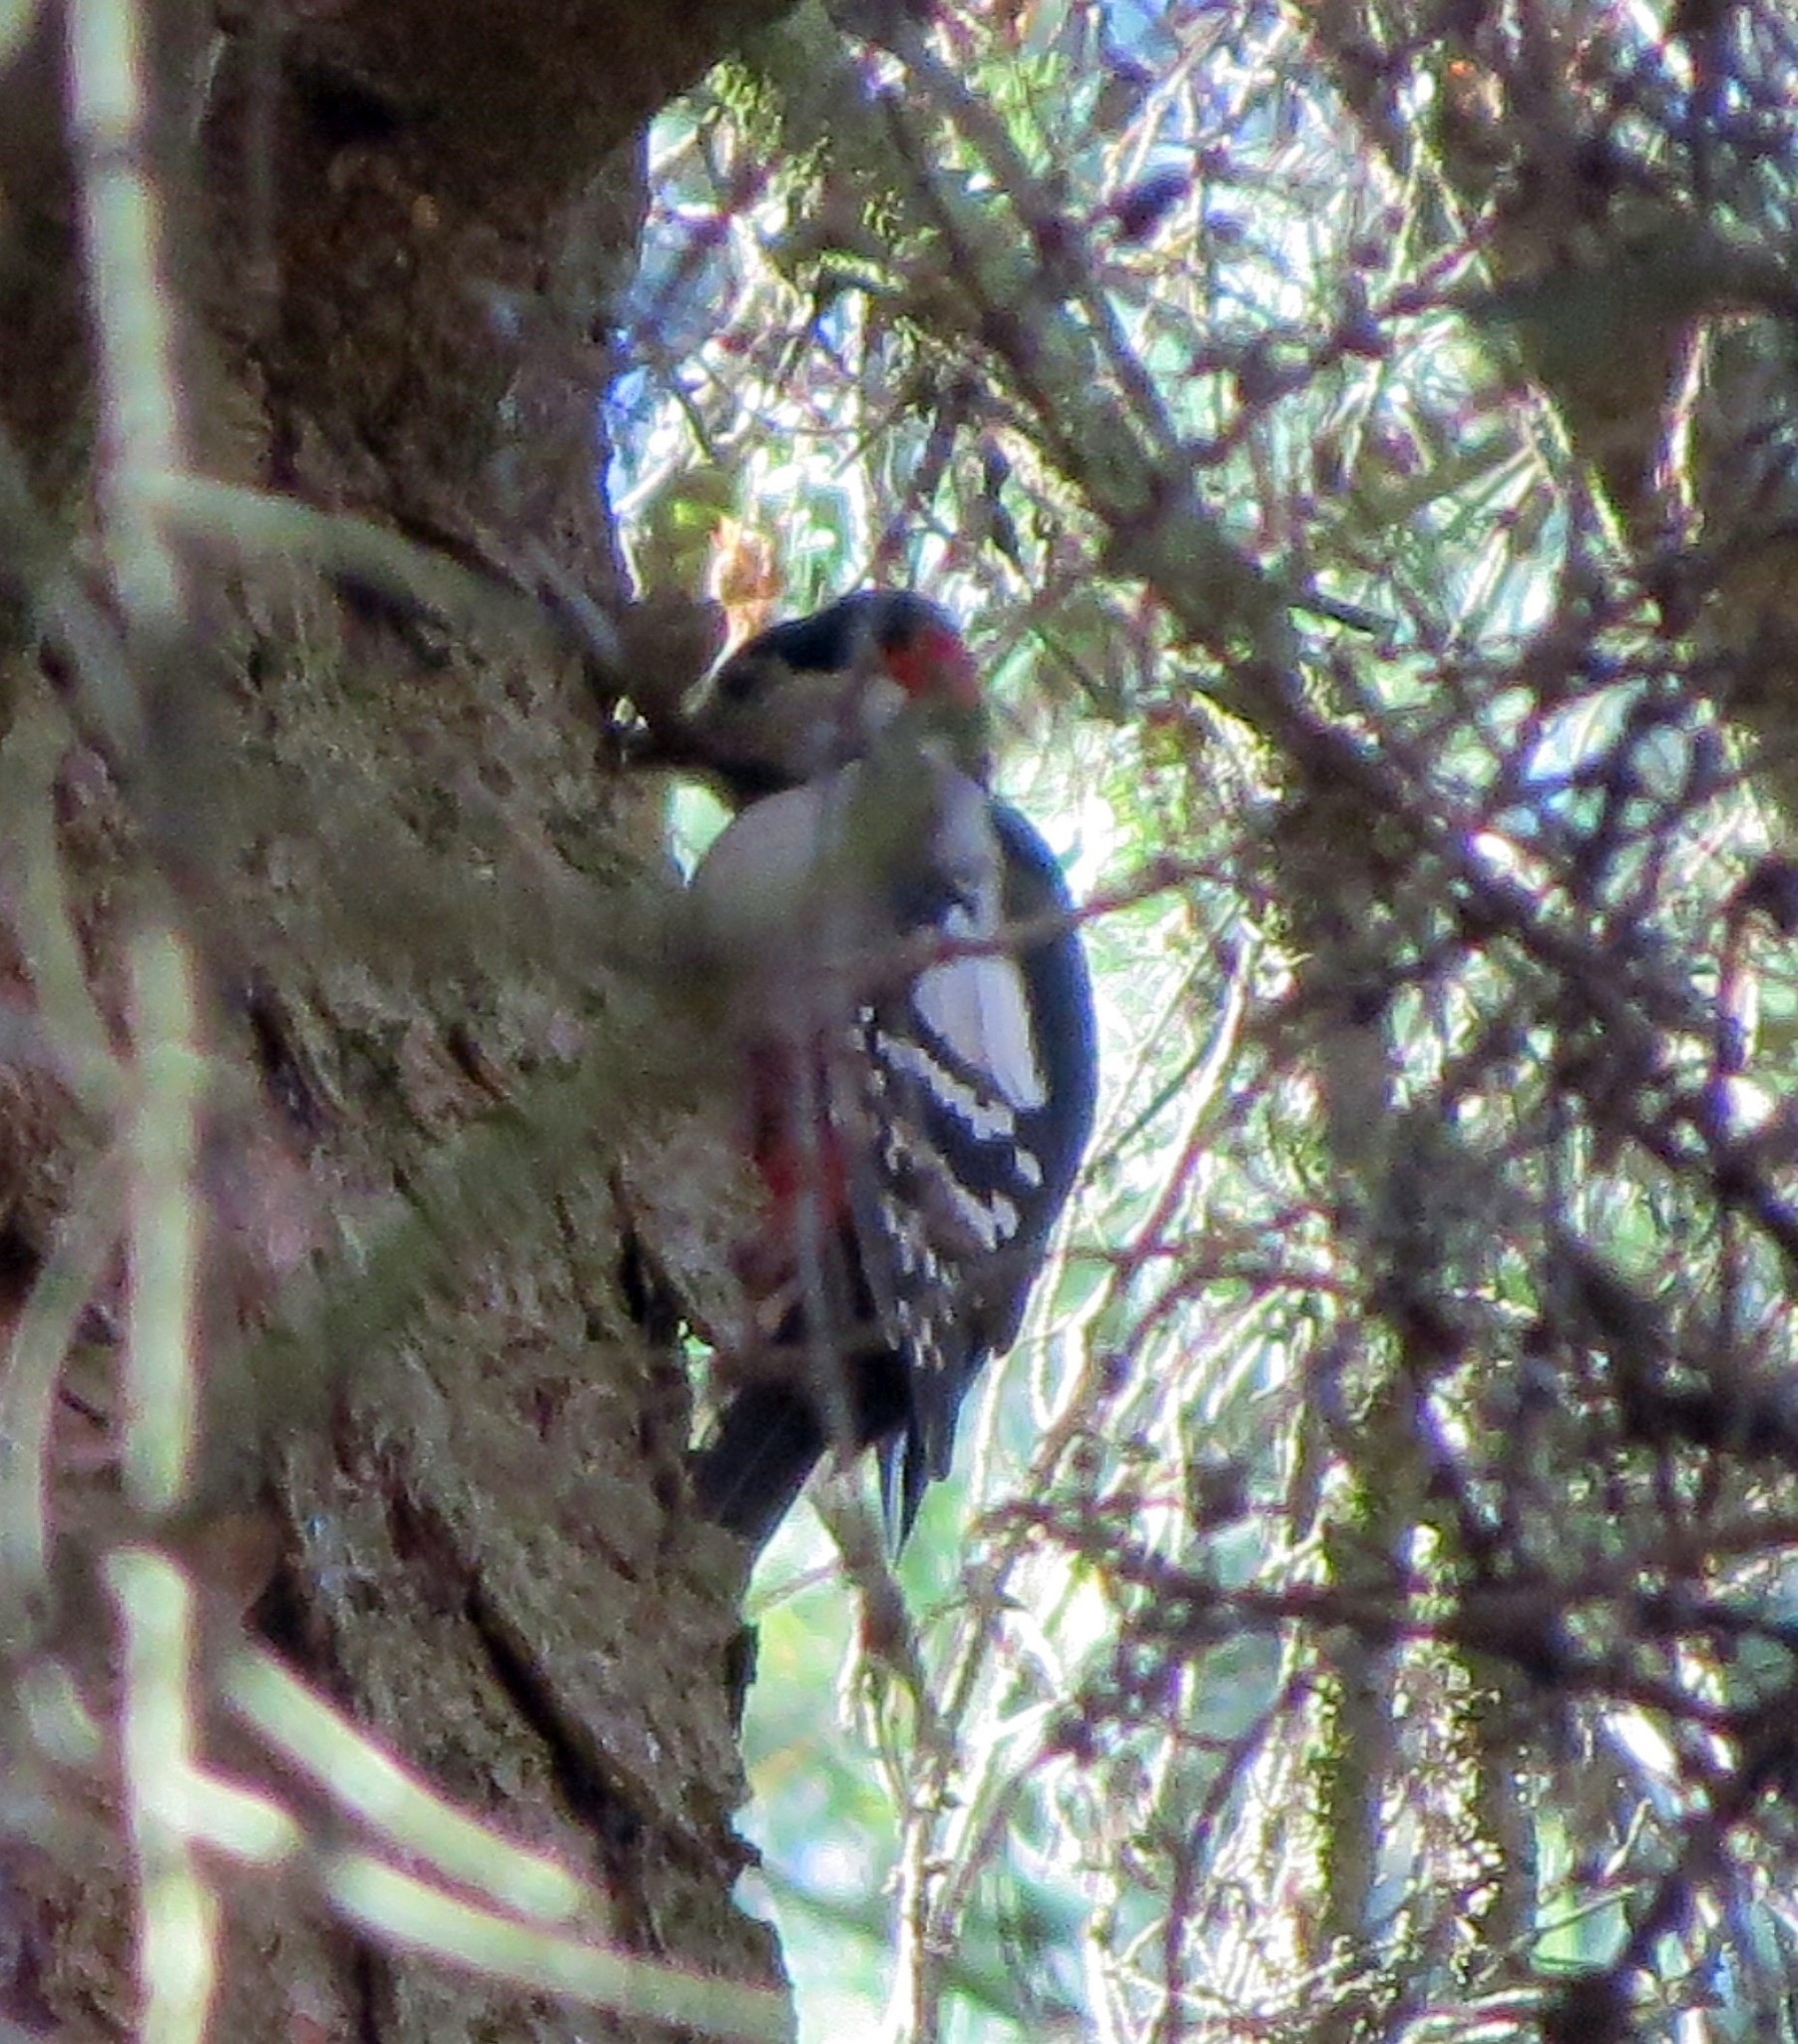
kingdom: Animalia
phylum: Chordata
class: Aves
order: Piciformes
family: Picidae
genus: Dendrocopos
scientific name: Dendrocopos major
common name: Great spotted woodpecker
